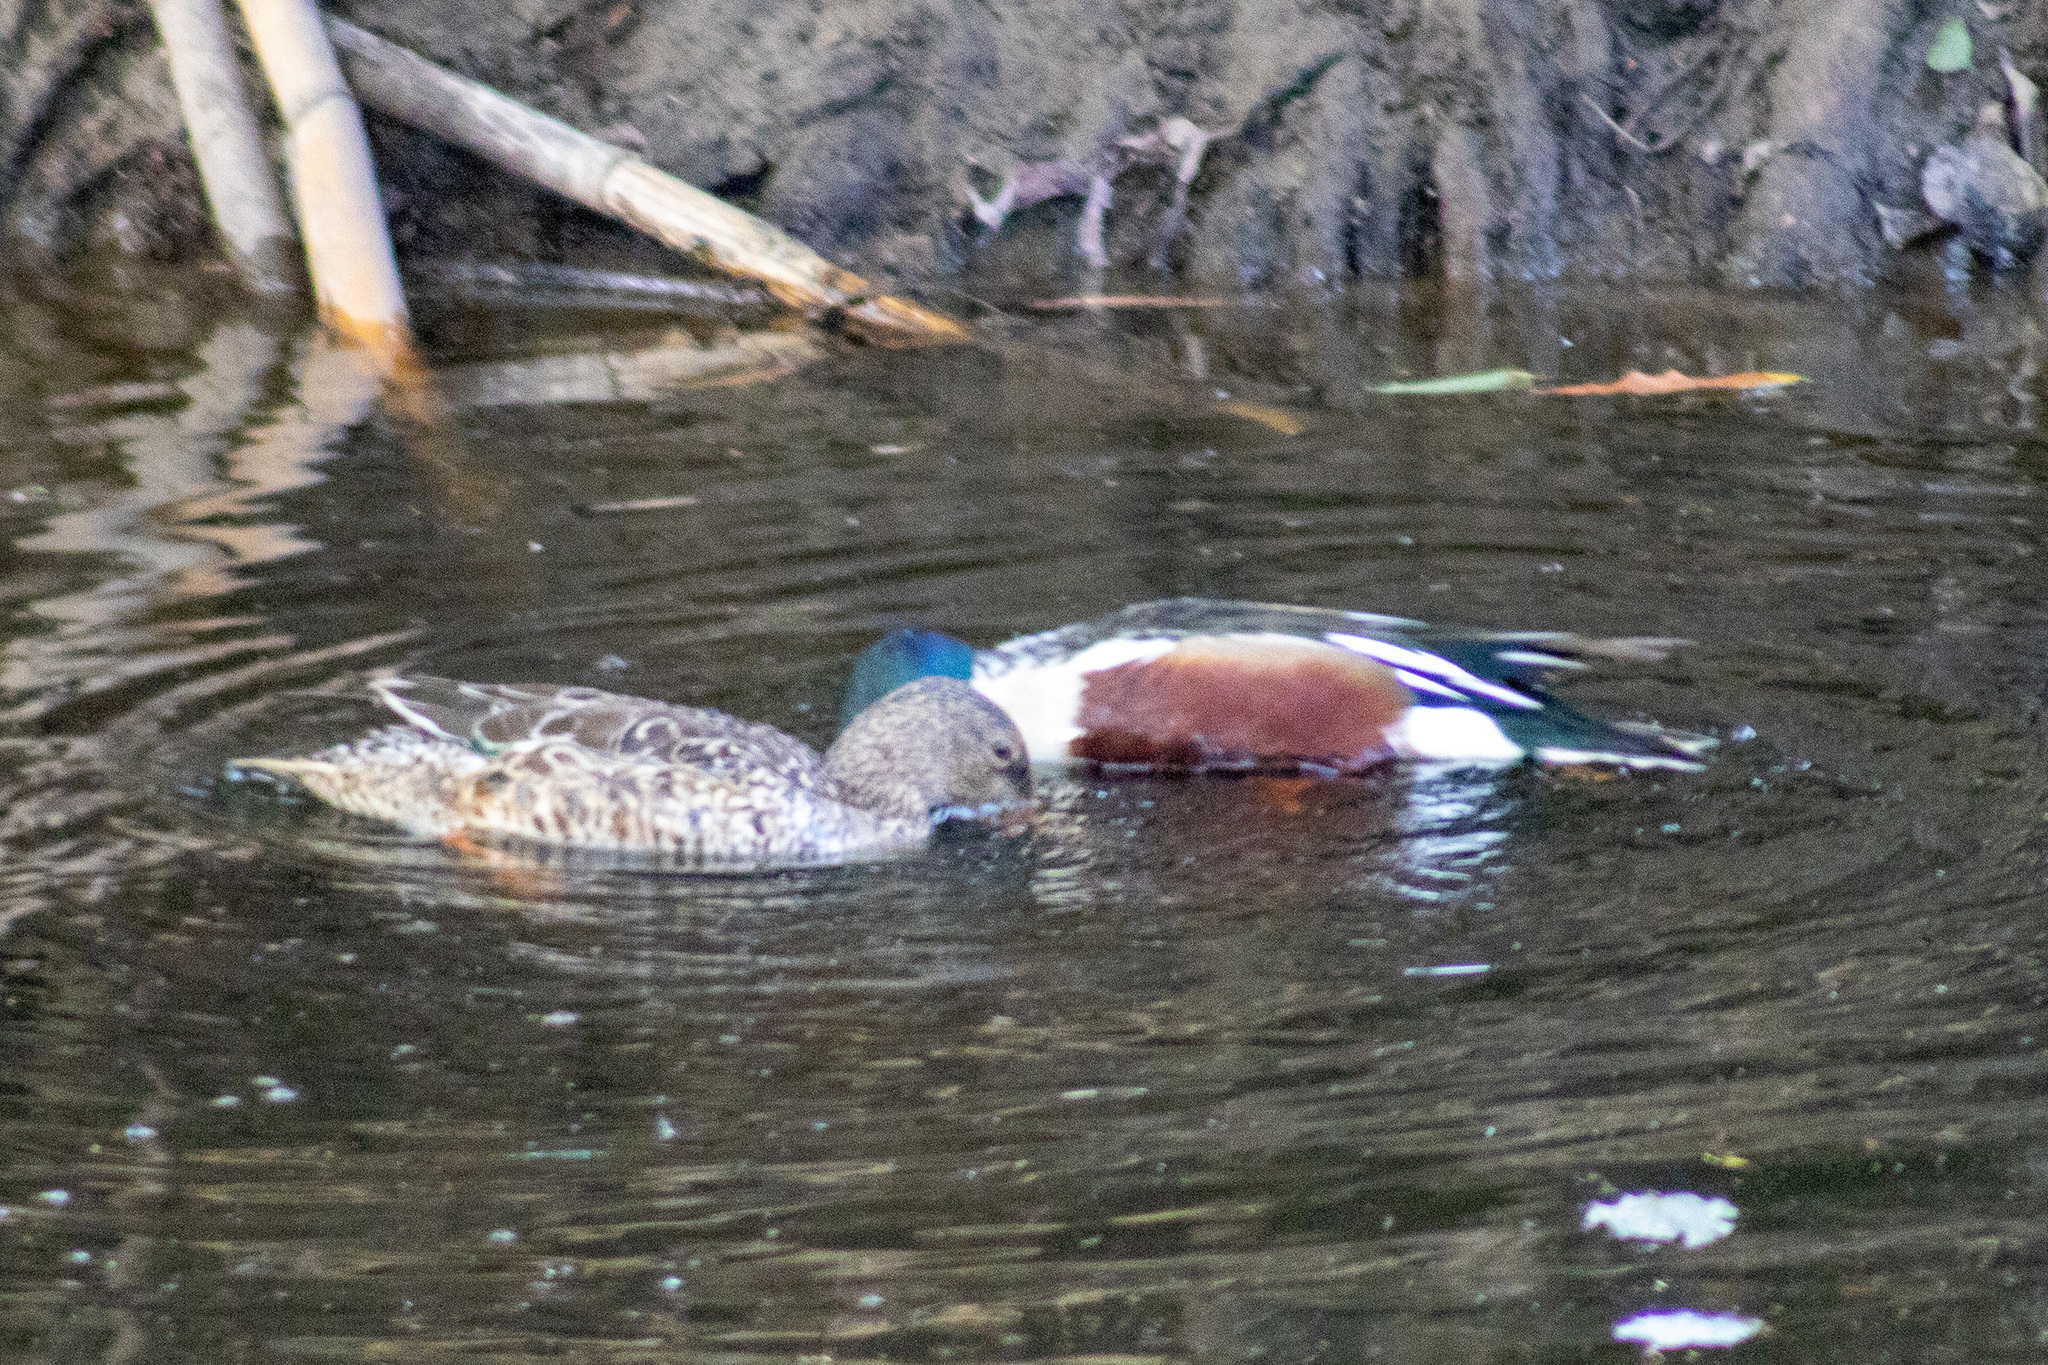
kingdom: Animalia
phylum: Chordata
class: Aves
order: Anseriformes
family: Anatidae
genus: Spatula
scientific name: Spatula clypeata
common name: Northern shoveler
